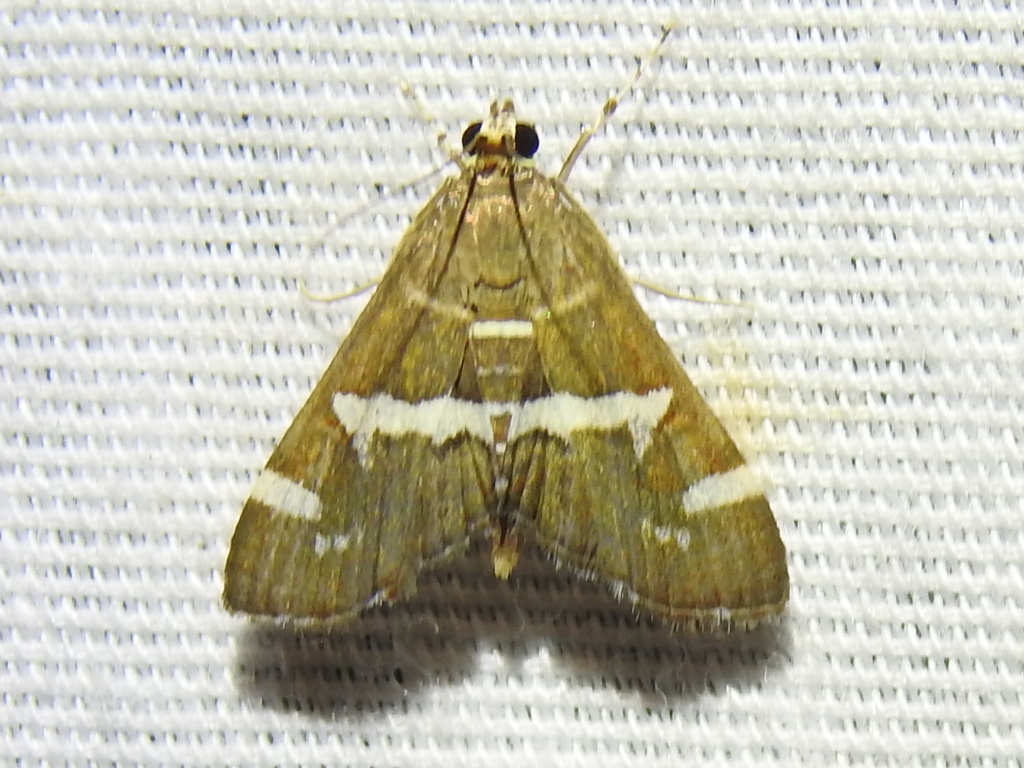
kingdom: Animalia
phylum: Arthropoda
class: Insecta
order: Lepidoptera
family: Crambidae
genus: Spoladea
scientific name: Spoladea recurvalis
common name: Beet webworm moth
